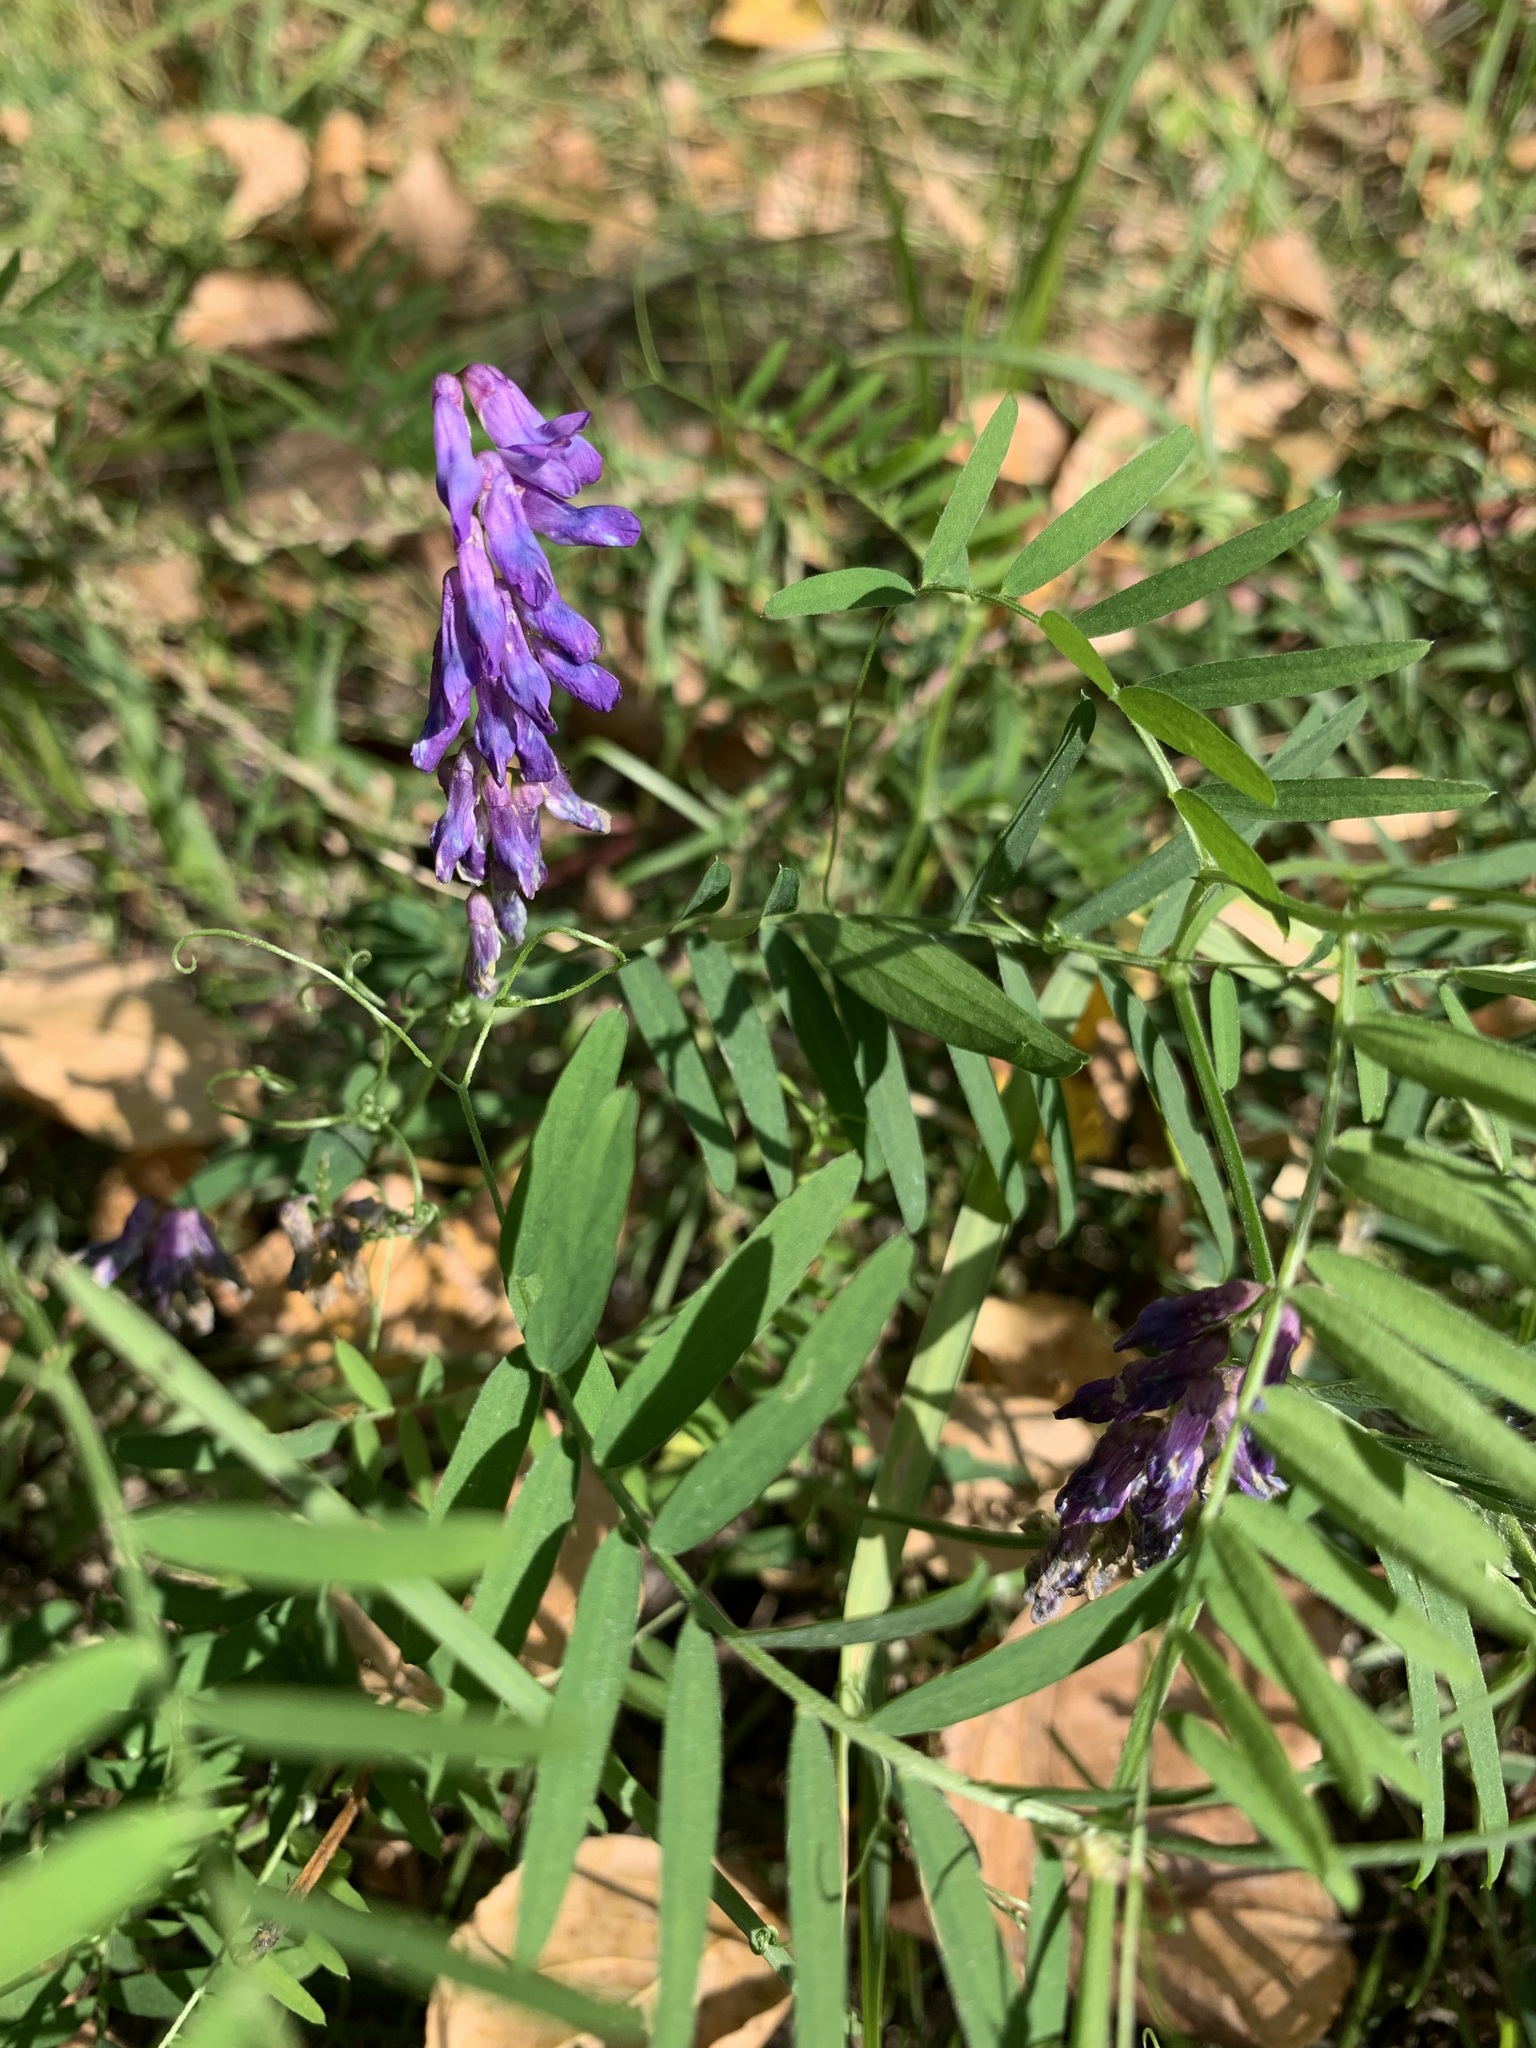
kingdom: Plantae
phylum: Tracheophyta
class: Magnoliopsida
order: Fabales
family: Fabaceae
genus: Vicia
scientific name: Vicia cracca
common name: Bird vetch
